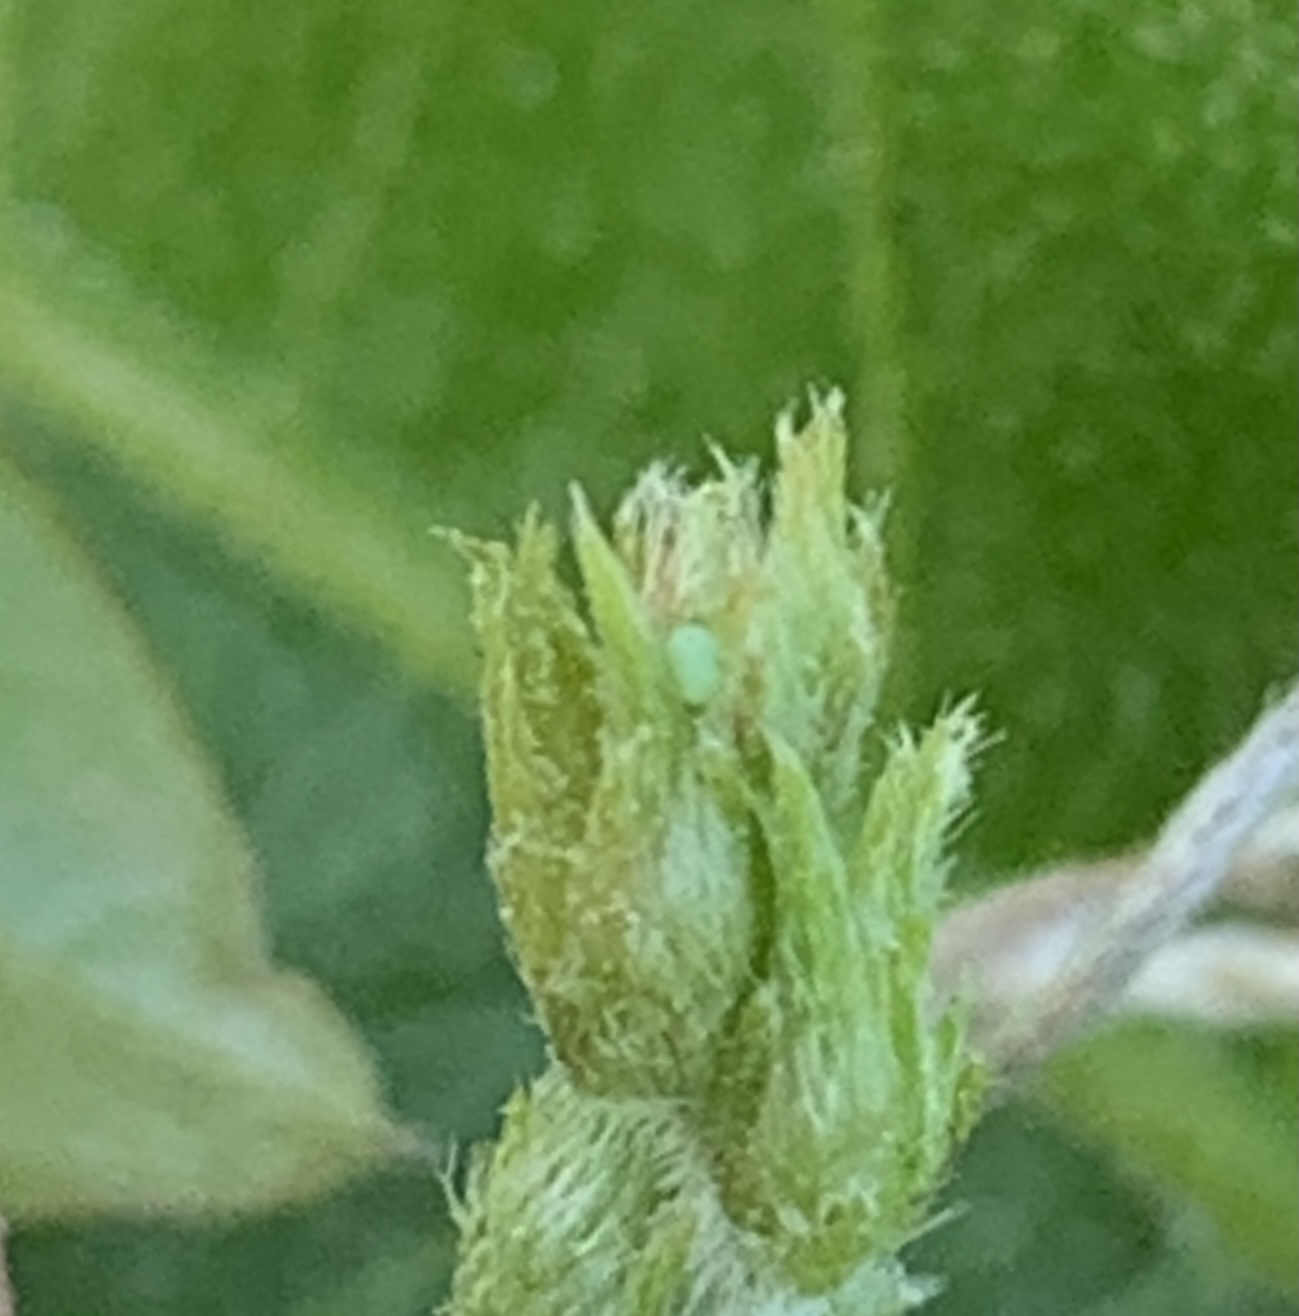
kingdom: Animalia
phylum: Arthropoda
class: Insecta
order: Lepidoptera
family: Lycaenidae
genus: Leptotes
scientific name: Leptotes cassius
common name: Cassius blue
